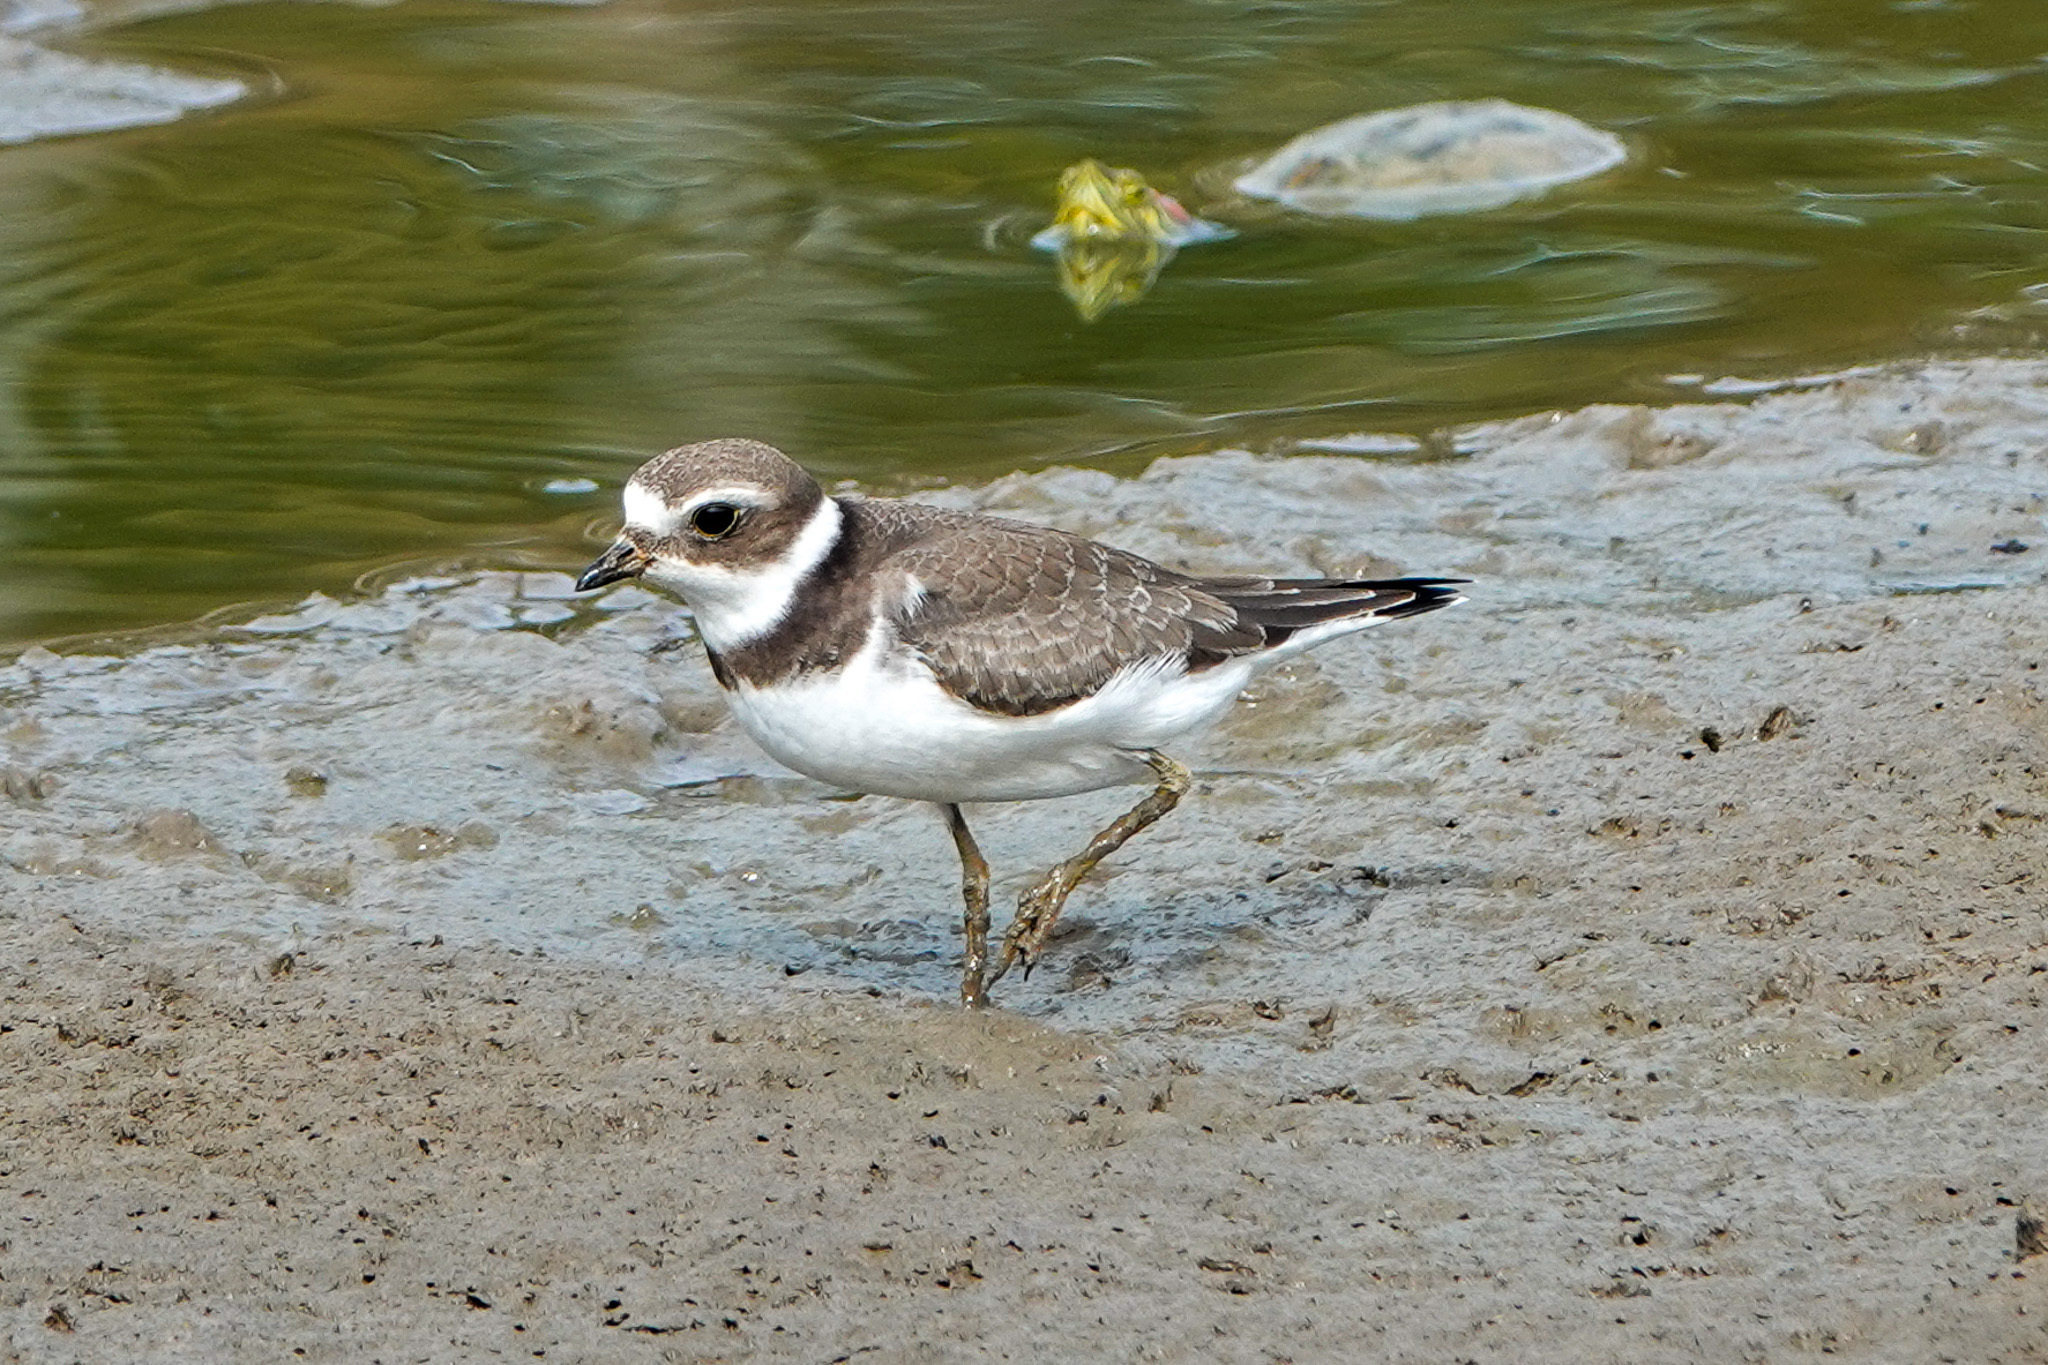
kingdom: Animalia
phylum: Chordata
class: Aves
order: Charadriiformes
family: Charadriidae
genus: Charadrius
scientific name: Charadrius semipalmatus
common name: Semipalmated plover
